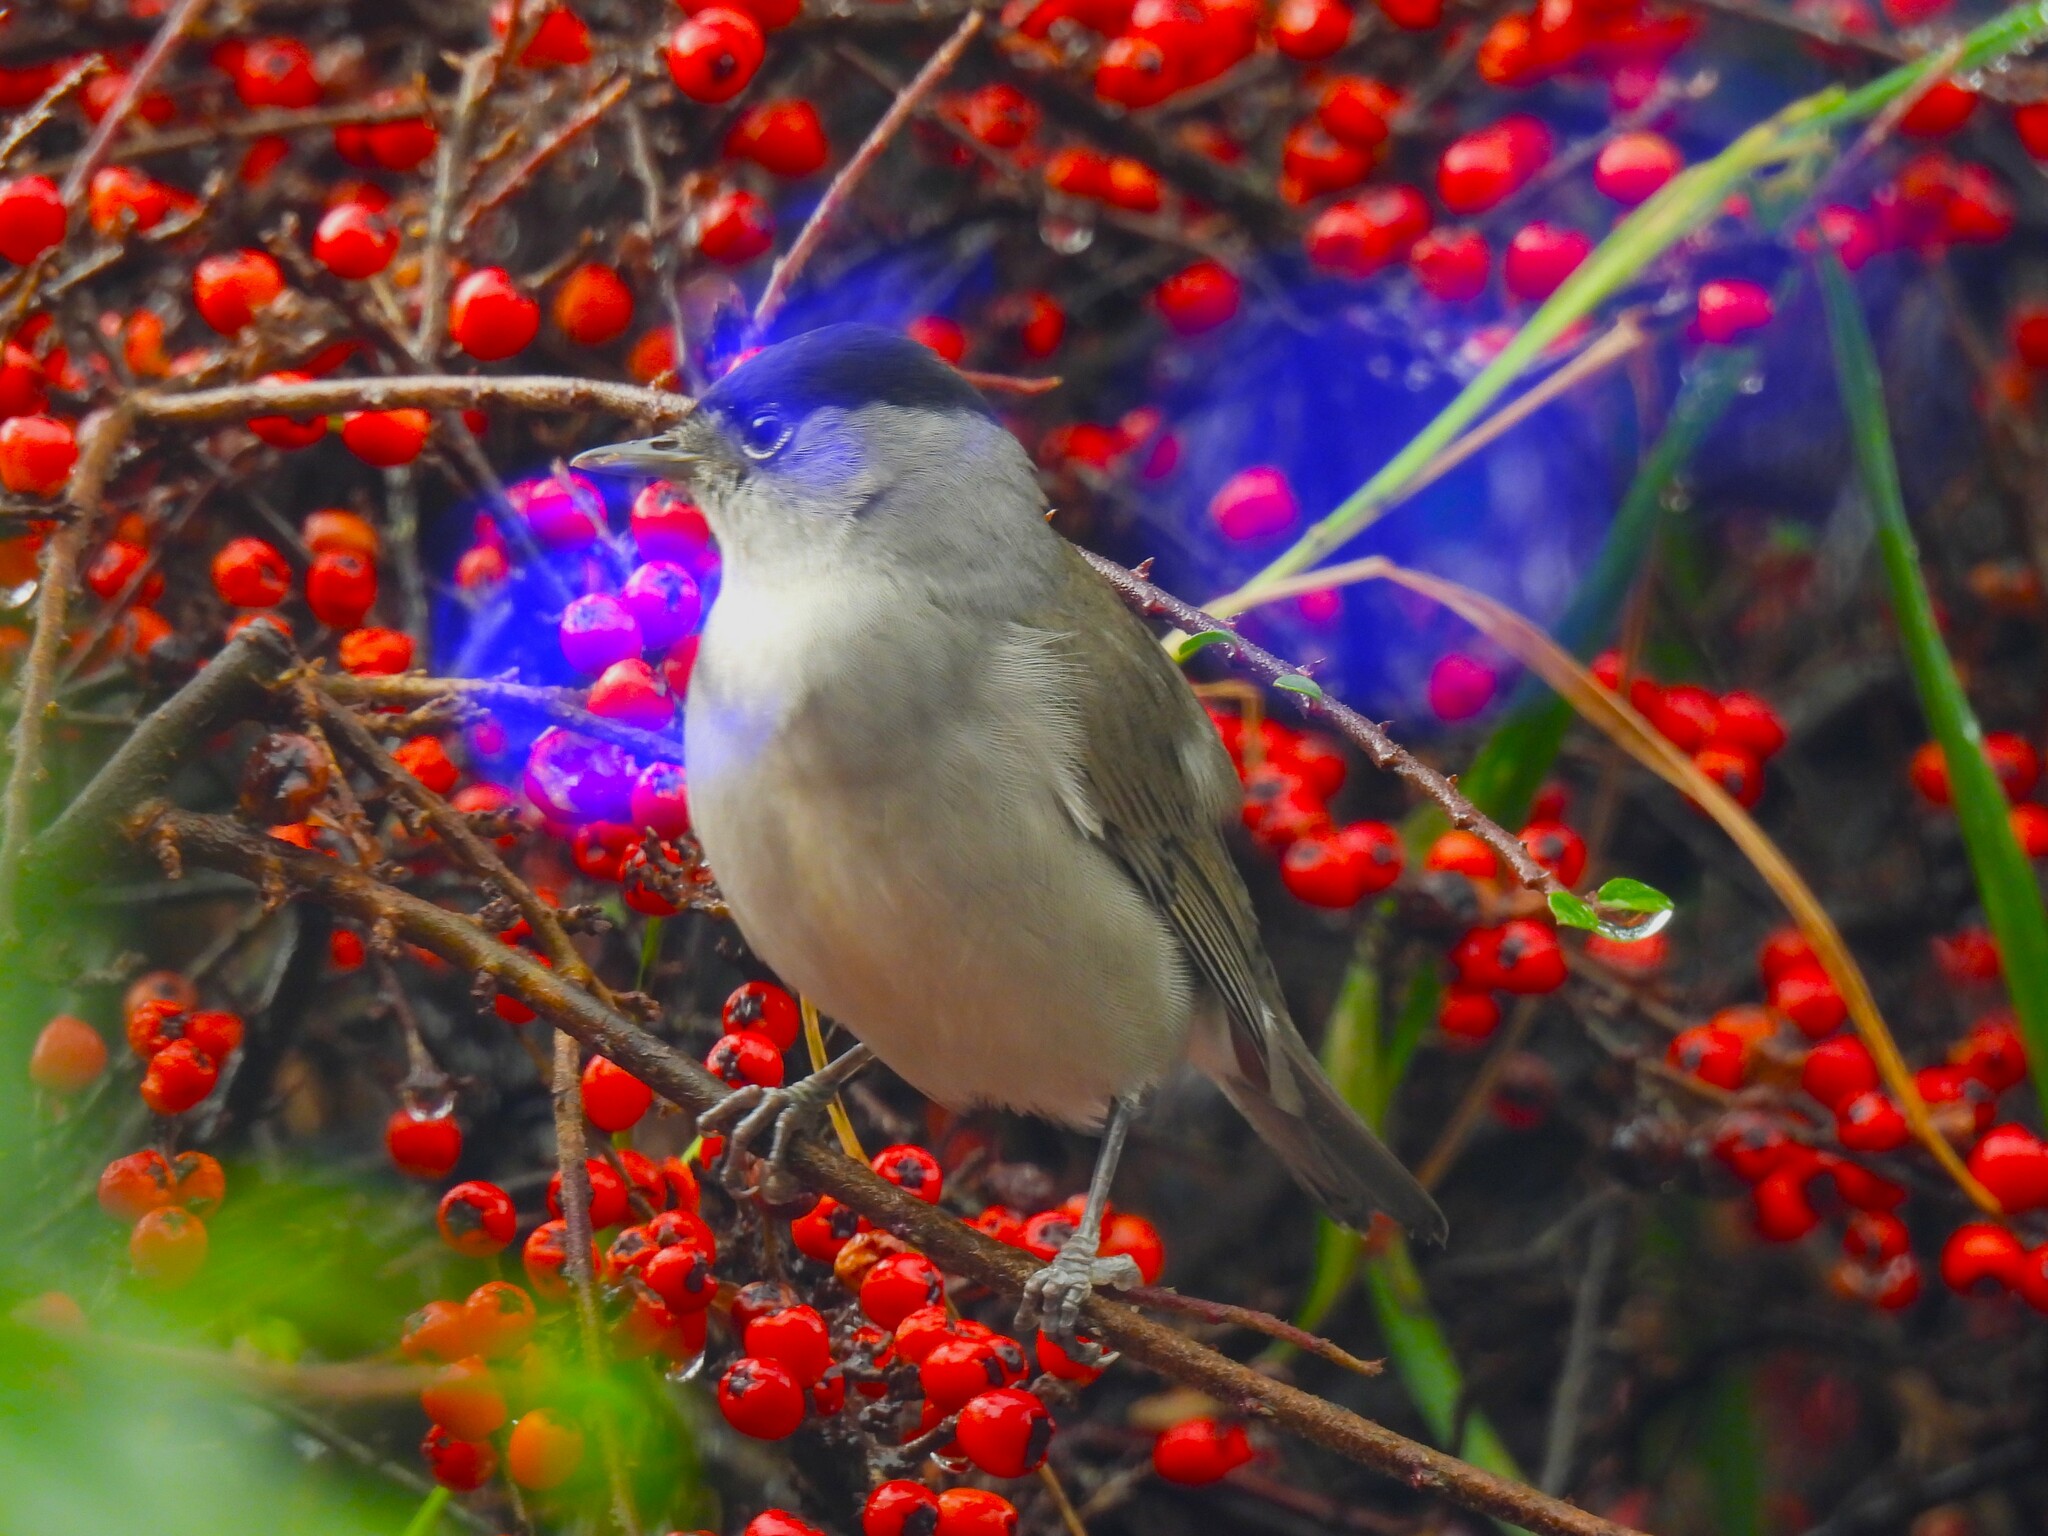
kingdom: Animalia
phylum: Chordata
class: Aves
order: Passeriformes
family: Sylviidae
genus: Sylvia
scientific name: Sylvia atricapilla
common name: Eurasian blackcap
